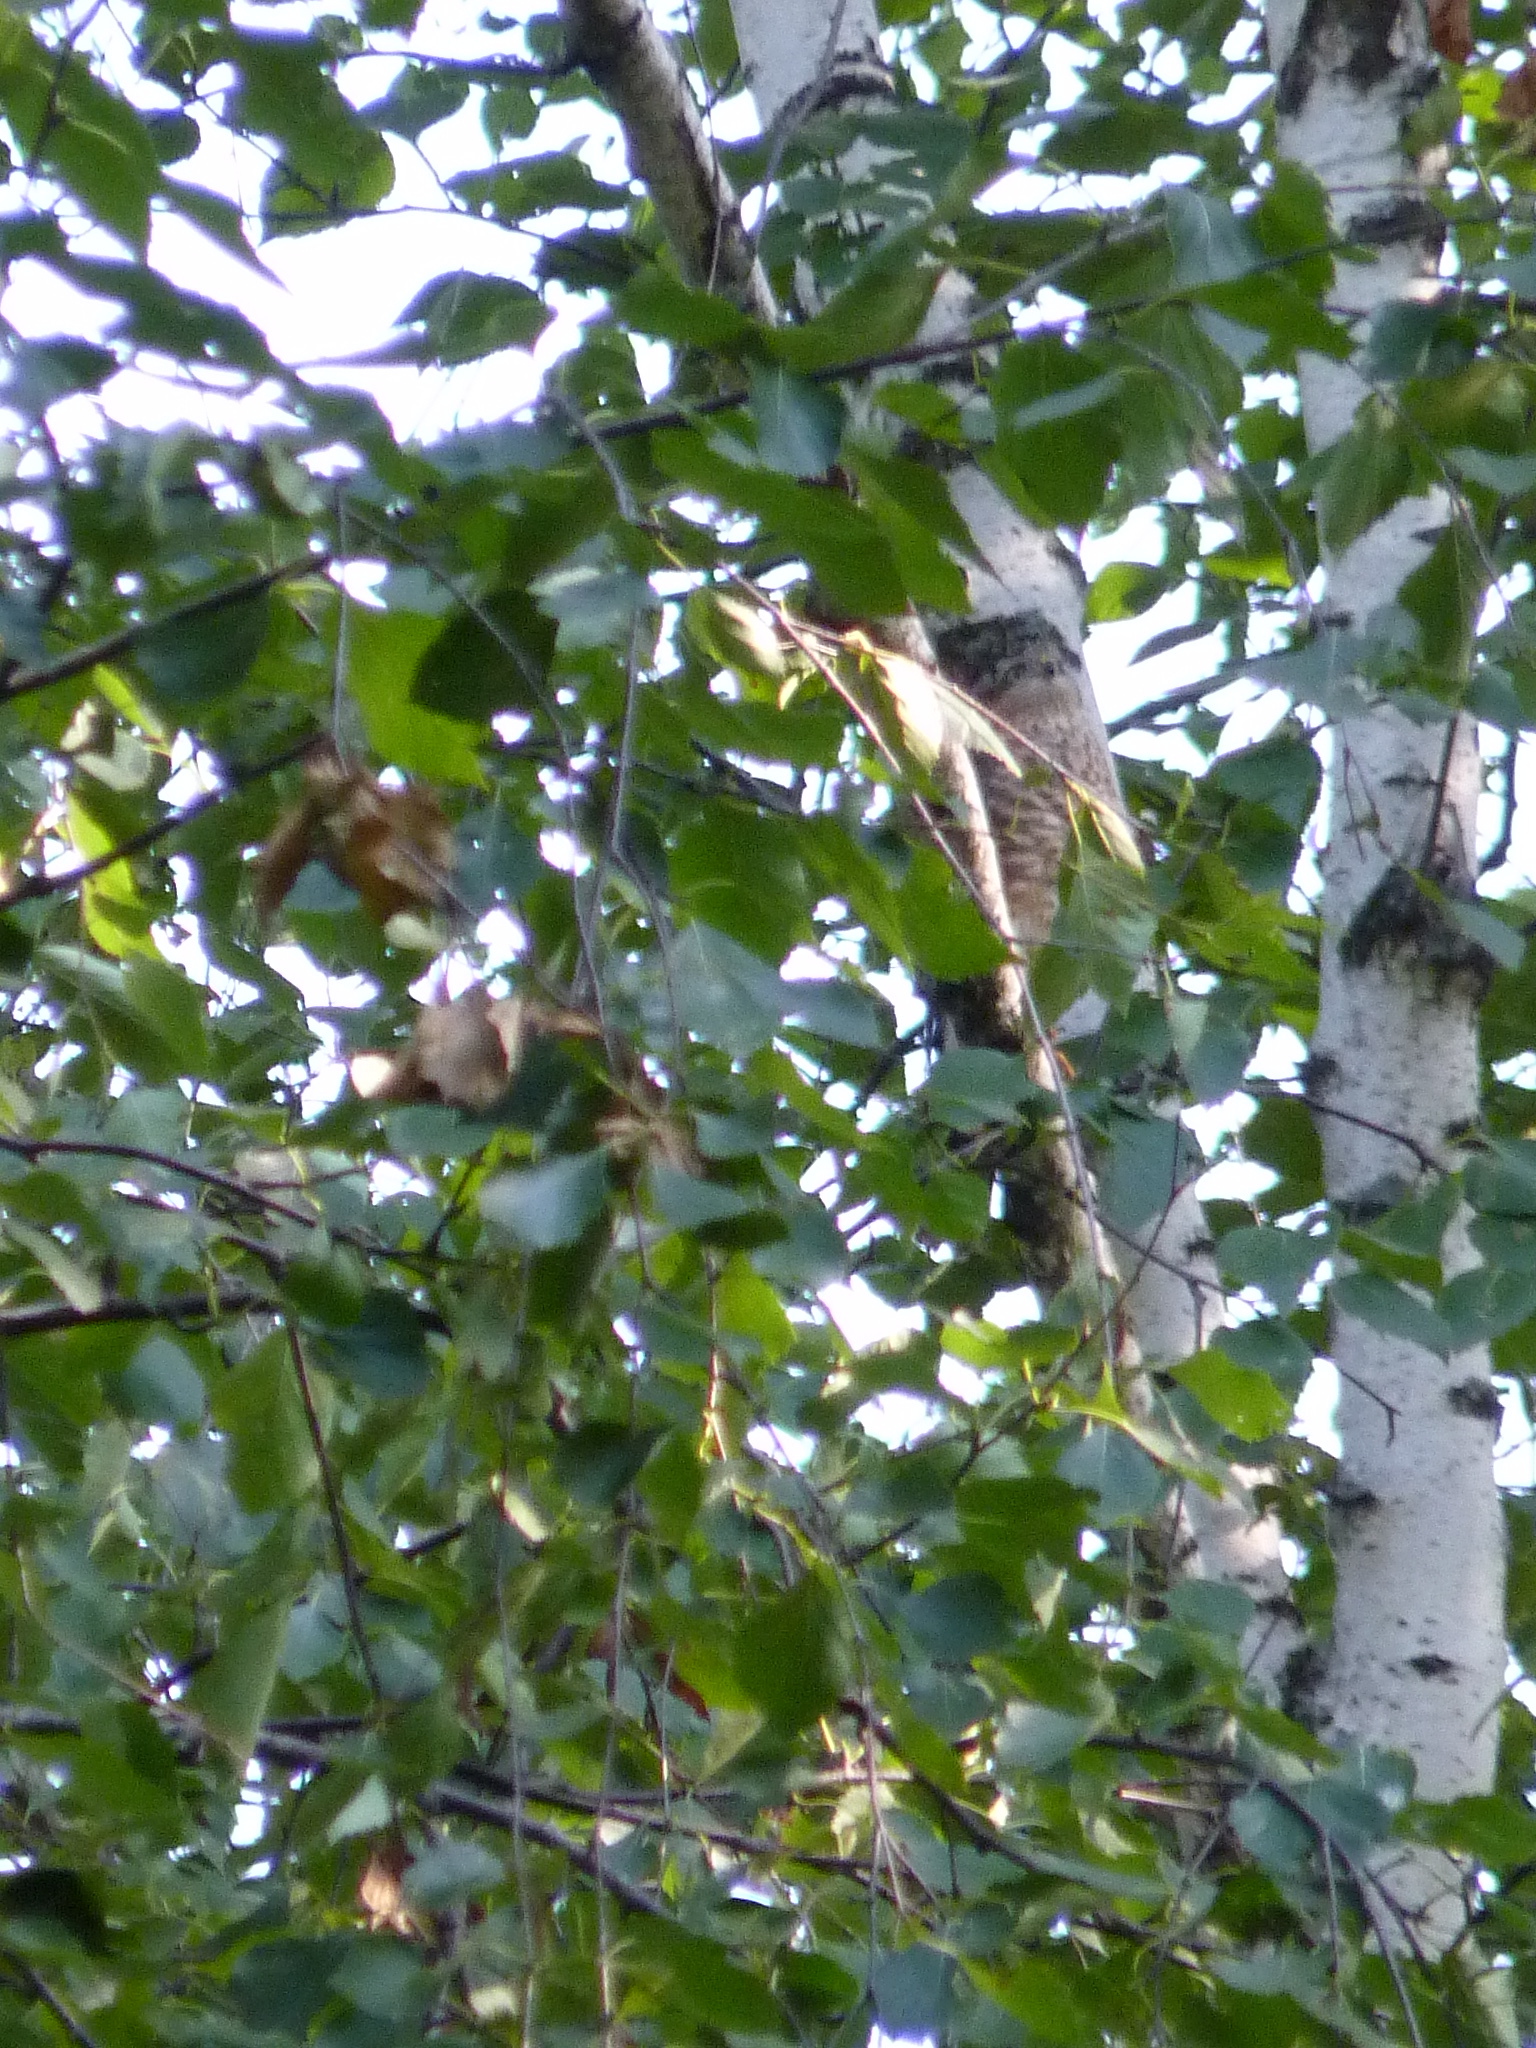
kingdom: Animalia
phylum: Chordata
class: Aves
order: Accipitriformes
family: Accipitridae
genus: Accipiter
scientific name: Accipiter nisus
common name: Eurasian sparrowhawk
